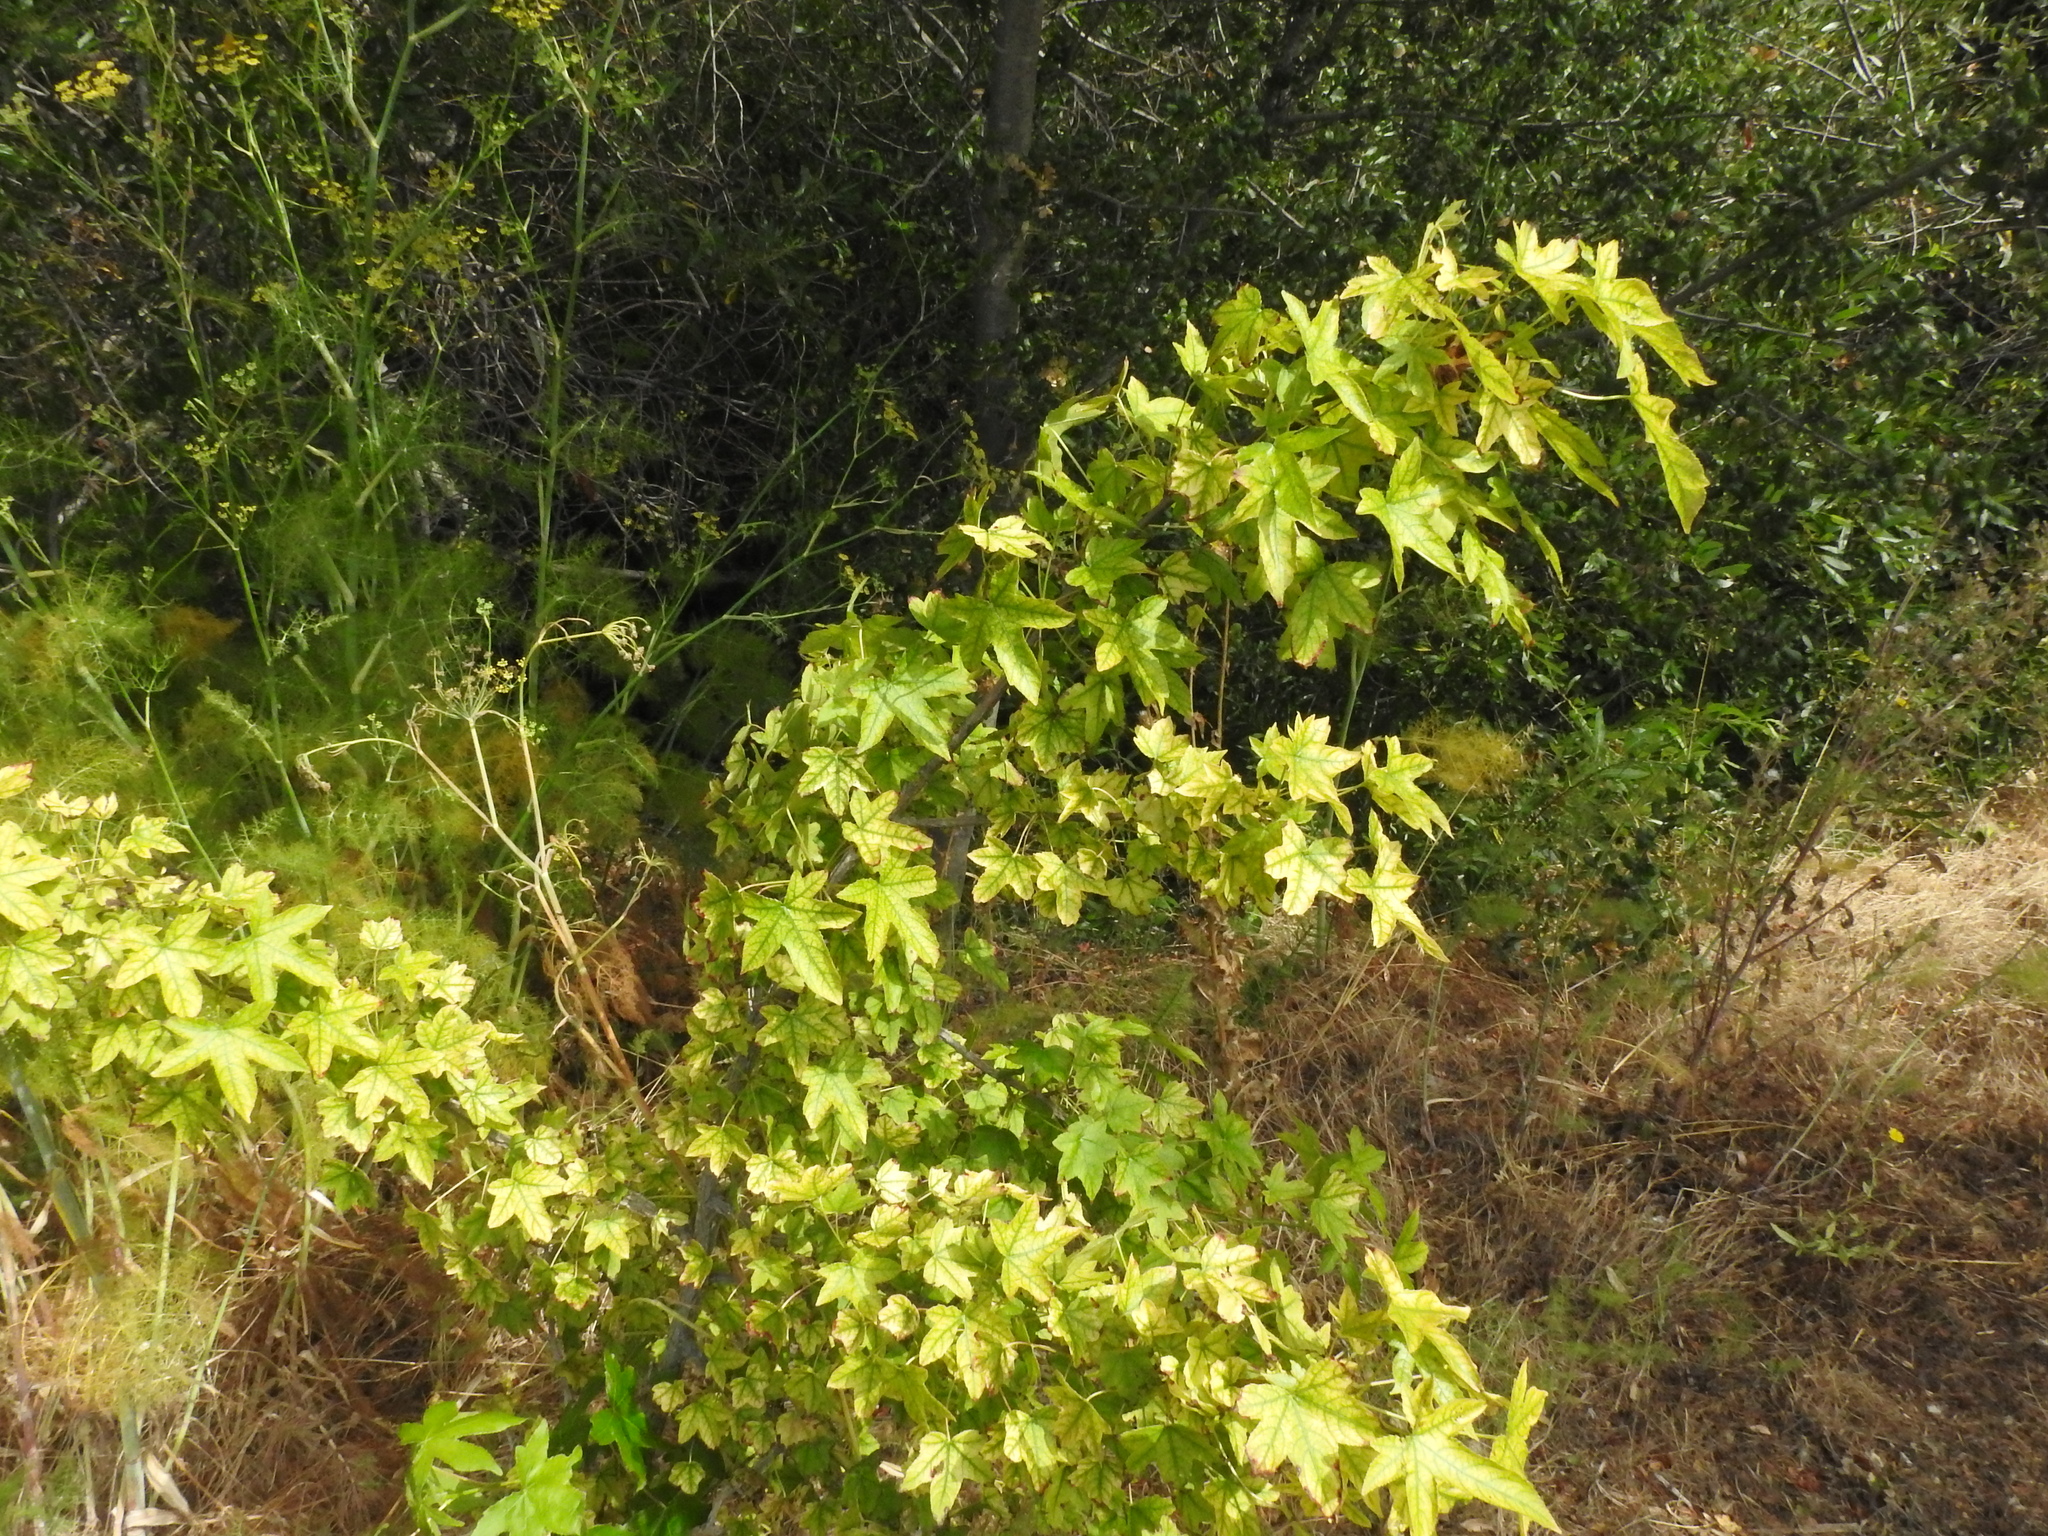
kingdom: Plantae
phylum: Tracheophyta
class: Magnoliopsida
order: Saxifragales
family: Altingiaceae
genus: Liquidambar
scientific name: Liquidambar styraciflua
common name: Sweet gum
